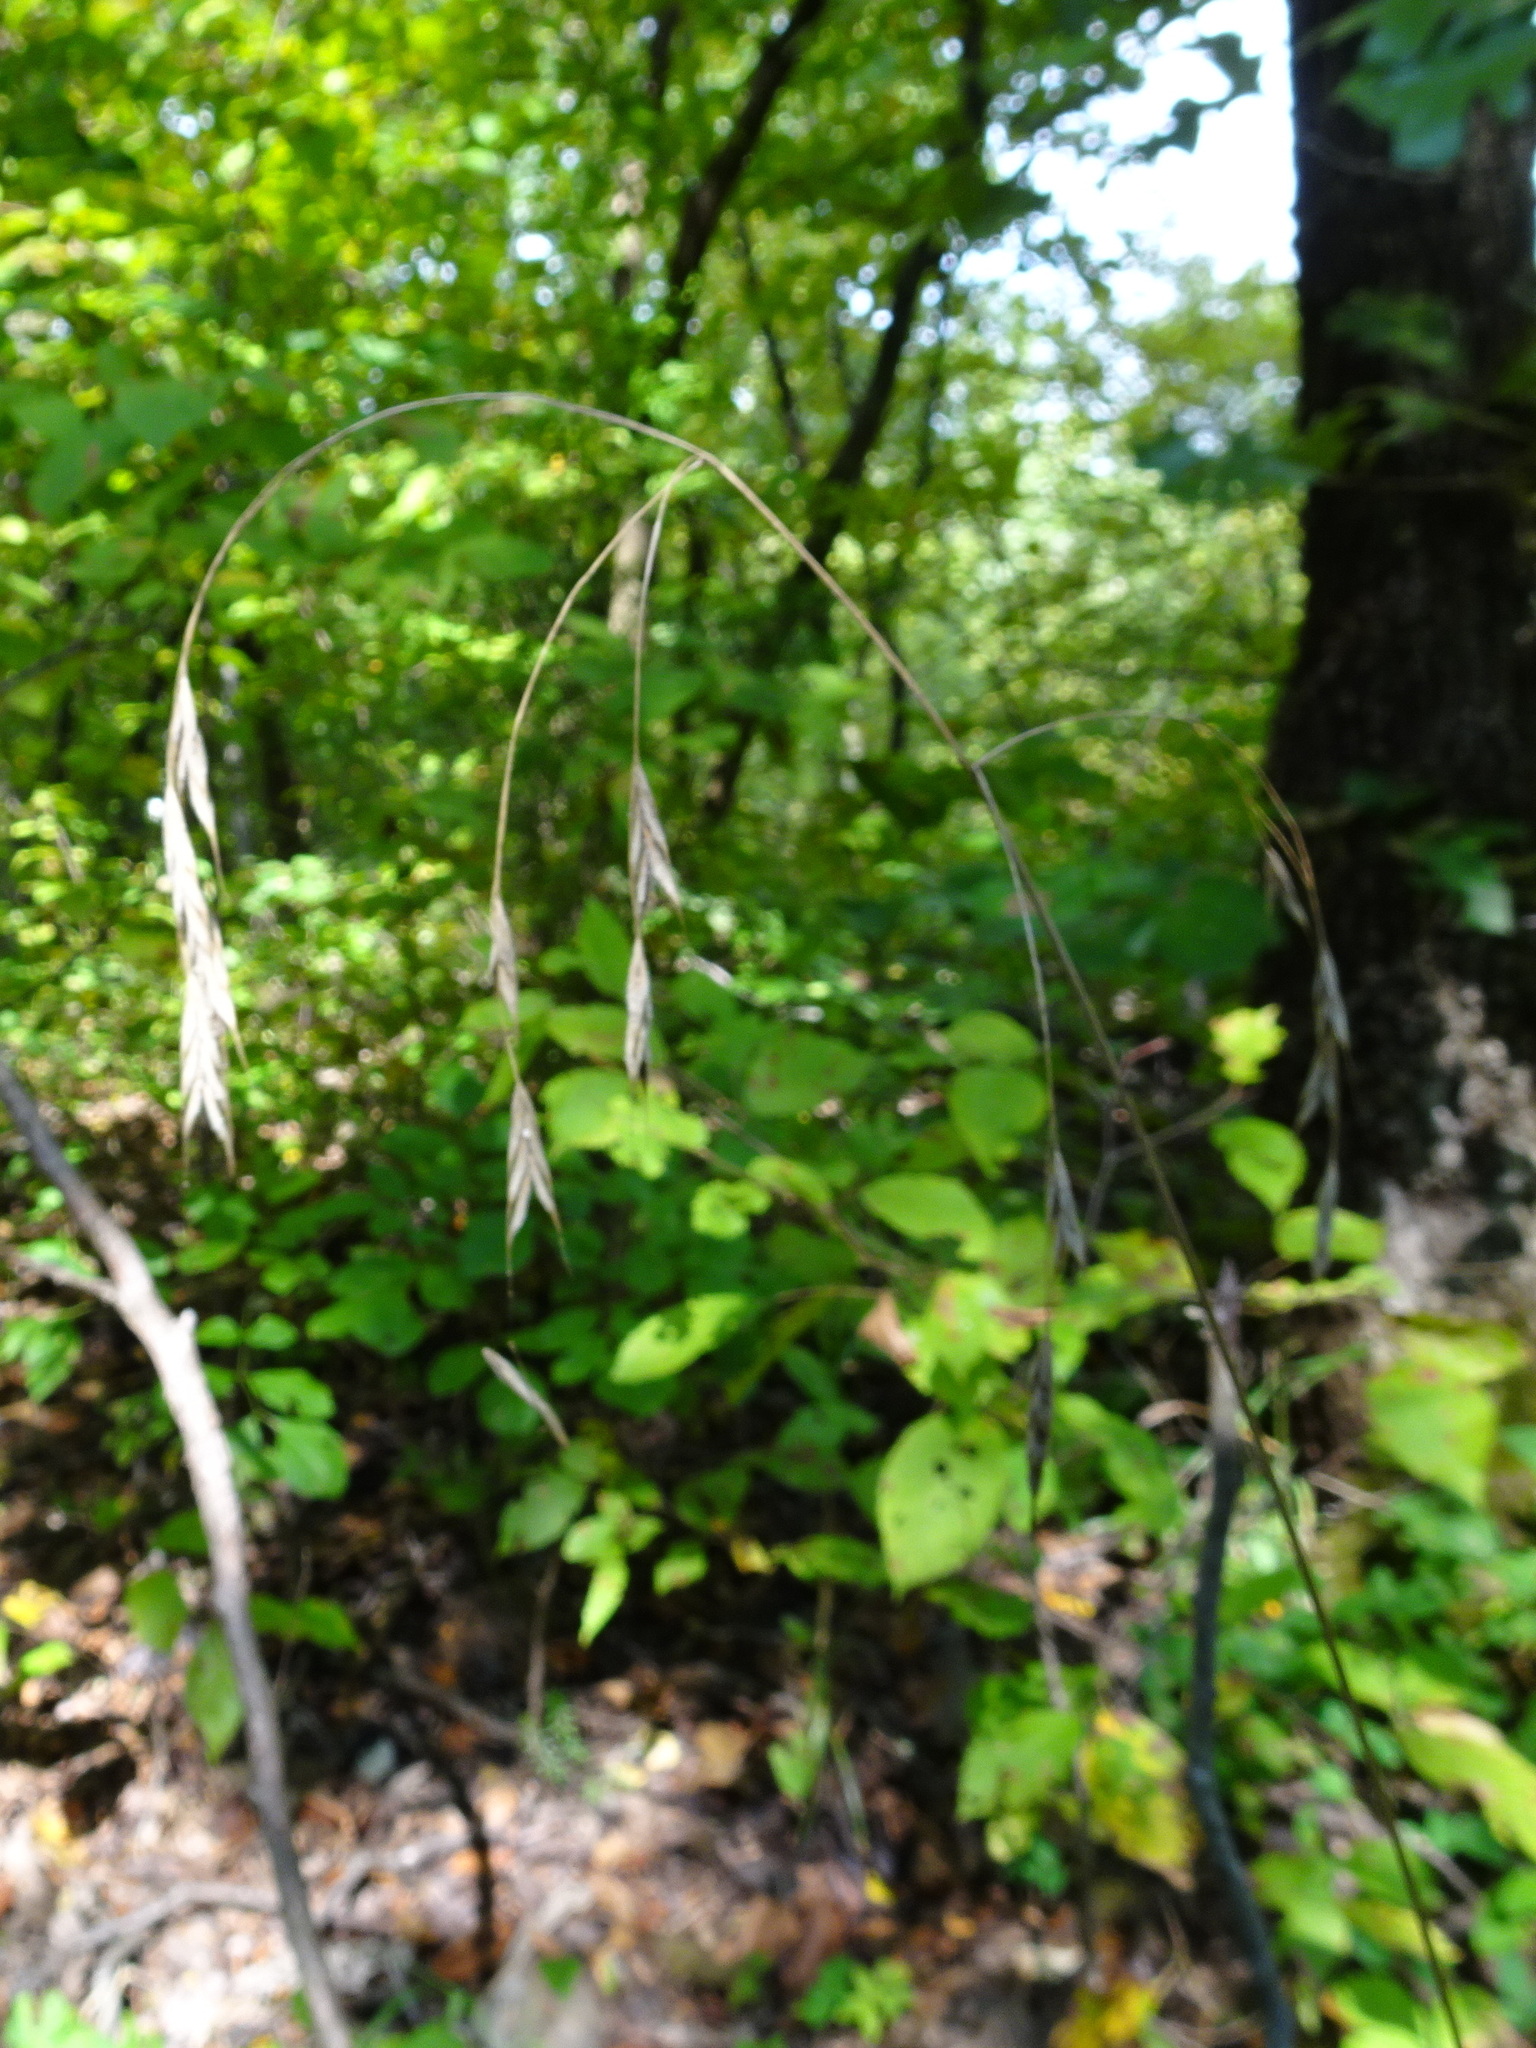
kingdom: Plantae
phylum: Tracheophyta
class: Liliopsida
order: Poales
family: Poaceae
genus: Bromus
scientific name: Bromus pubescens
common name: Hairy wood brome grass
